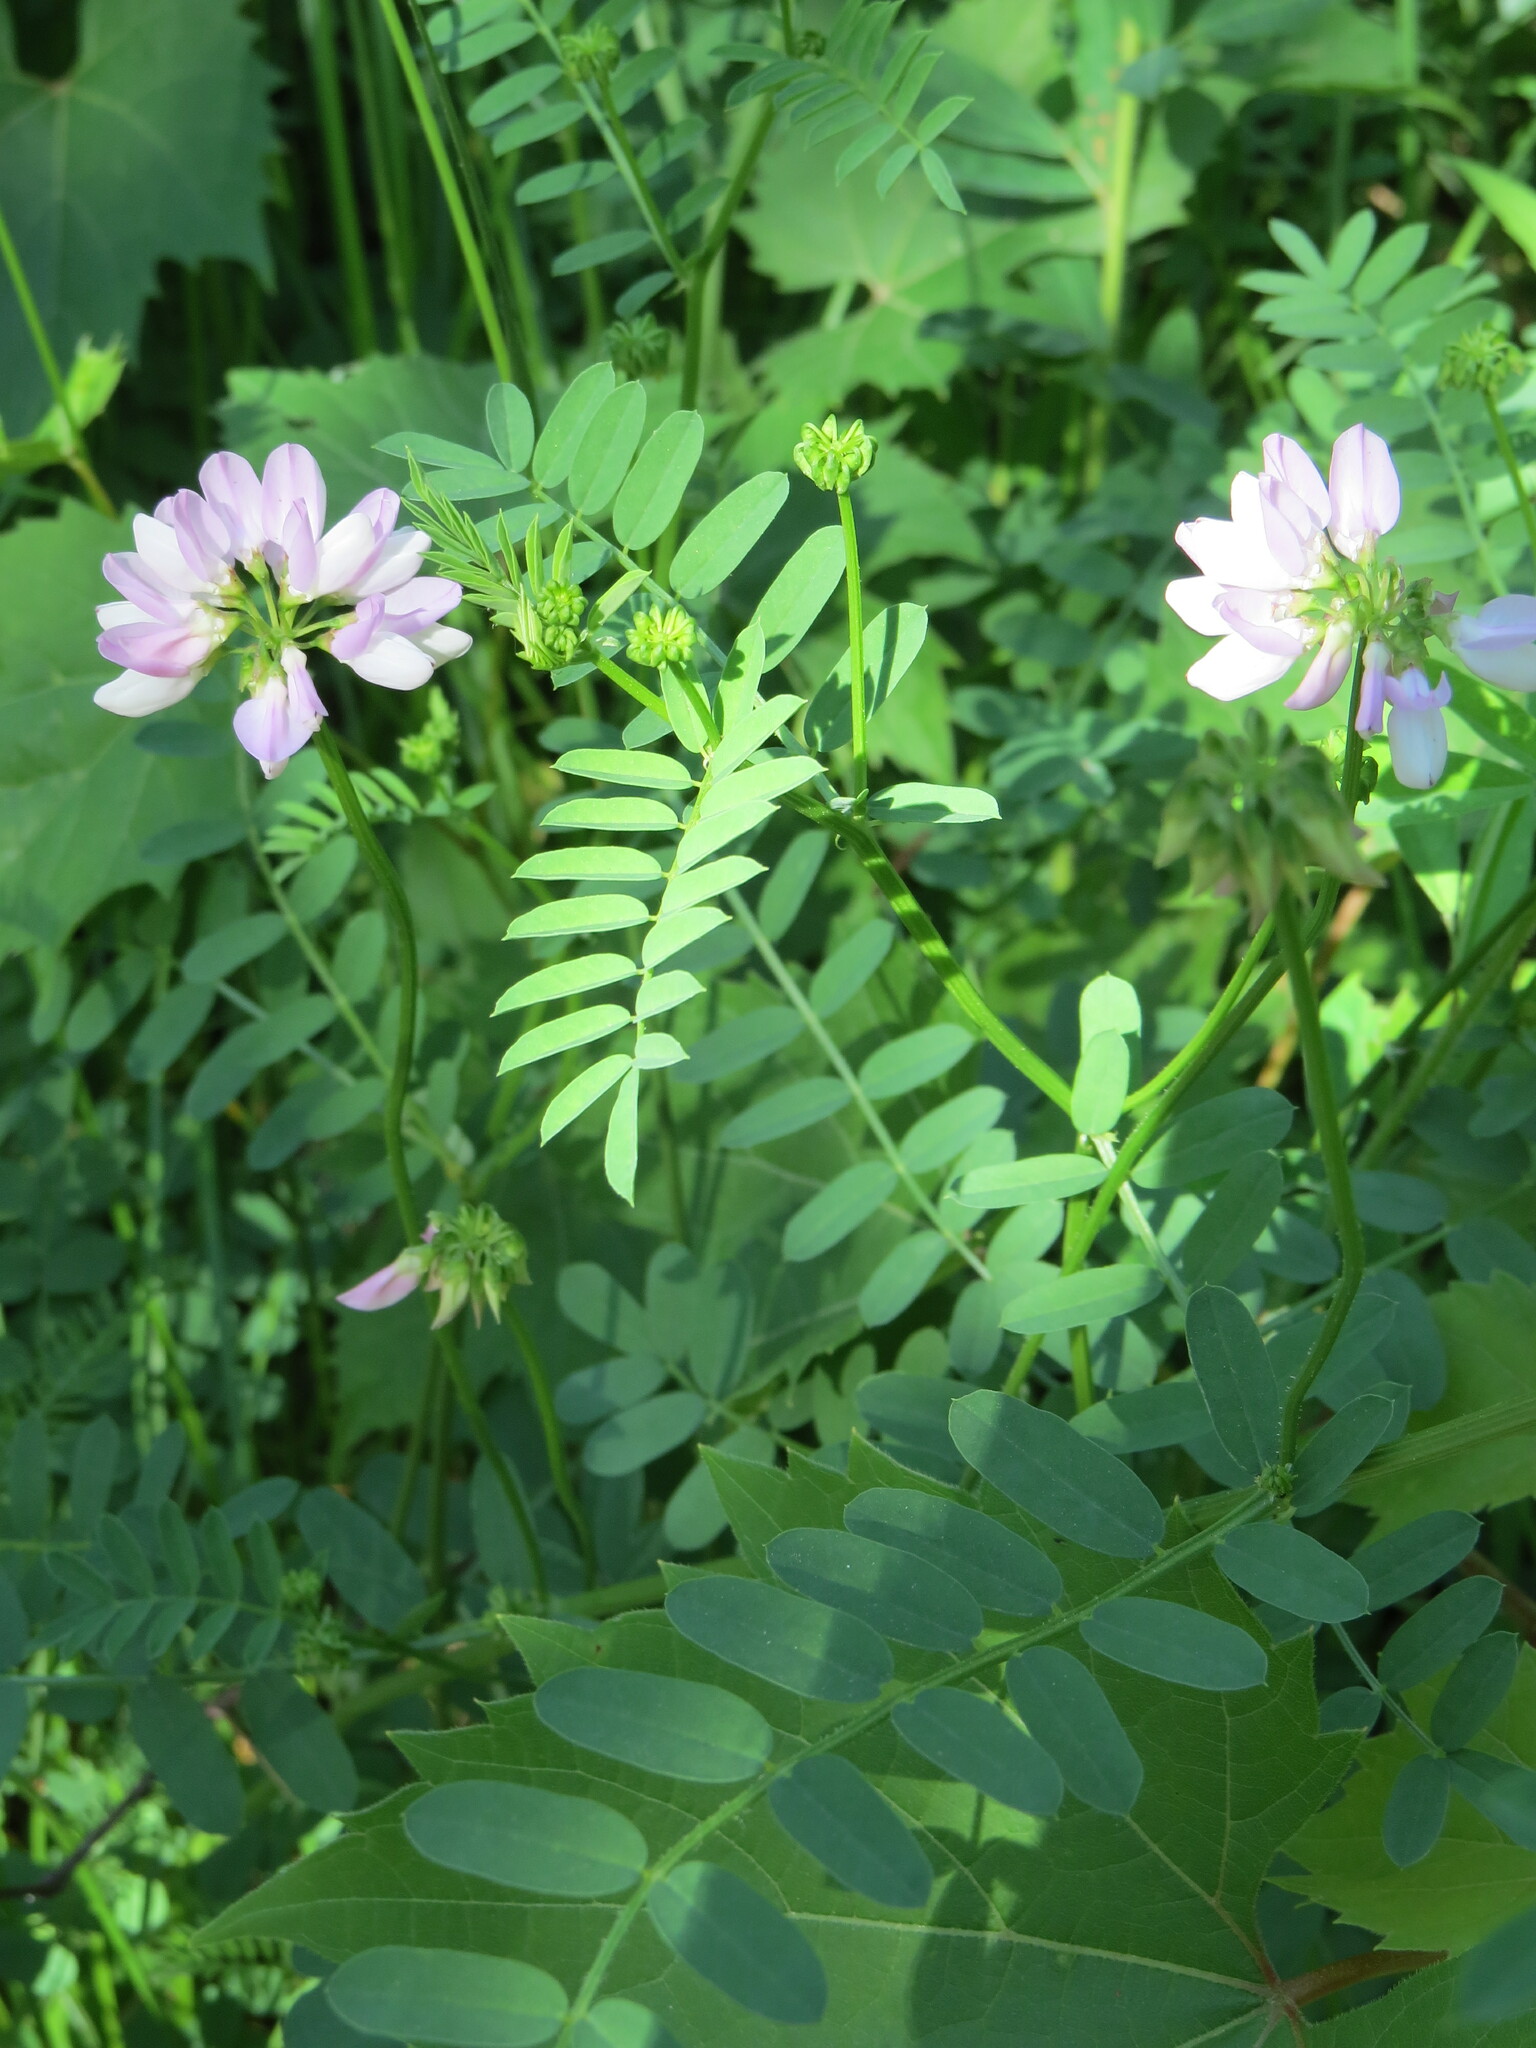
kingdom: Plantae
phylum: Tracheophyta
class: Magnoliopsida
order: Fabales
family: Fabaceae
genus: Coronilla
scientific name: Coronilla varia
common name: Crownvetch
